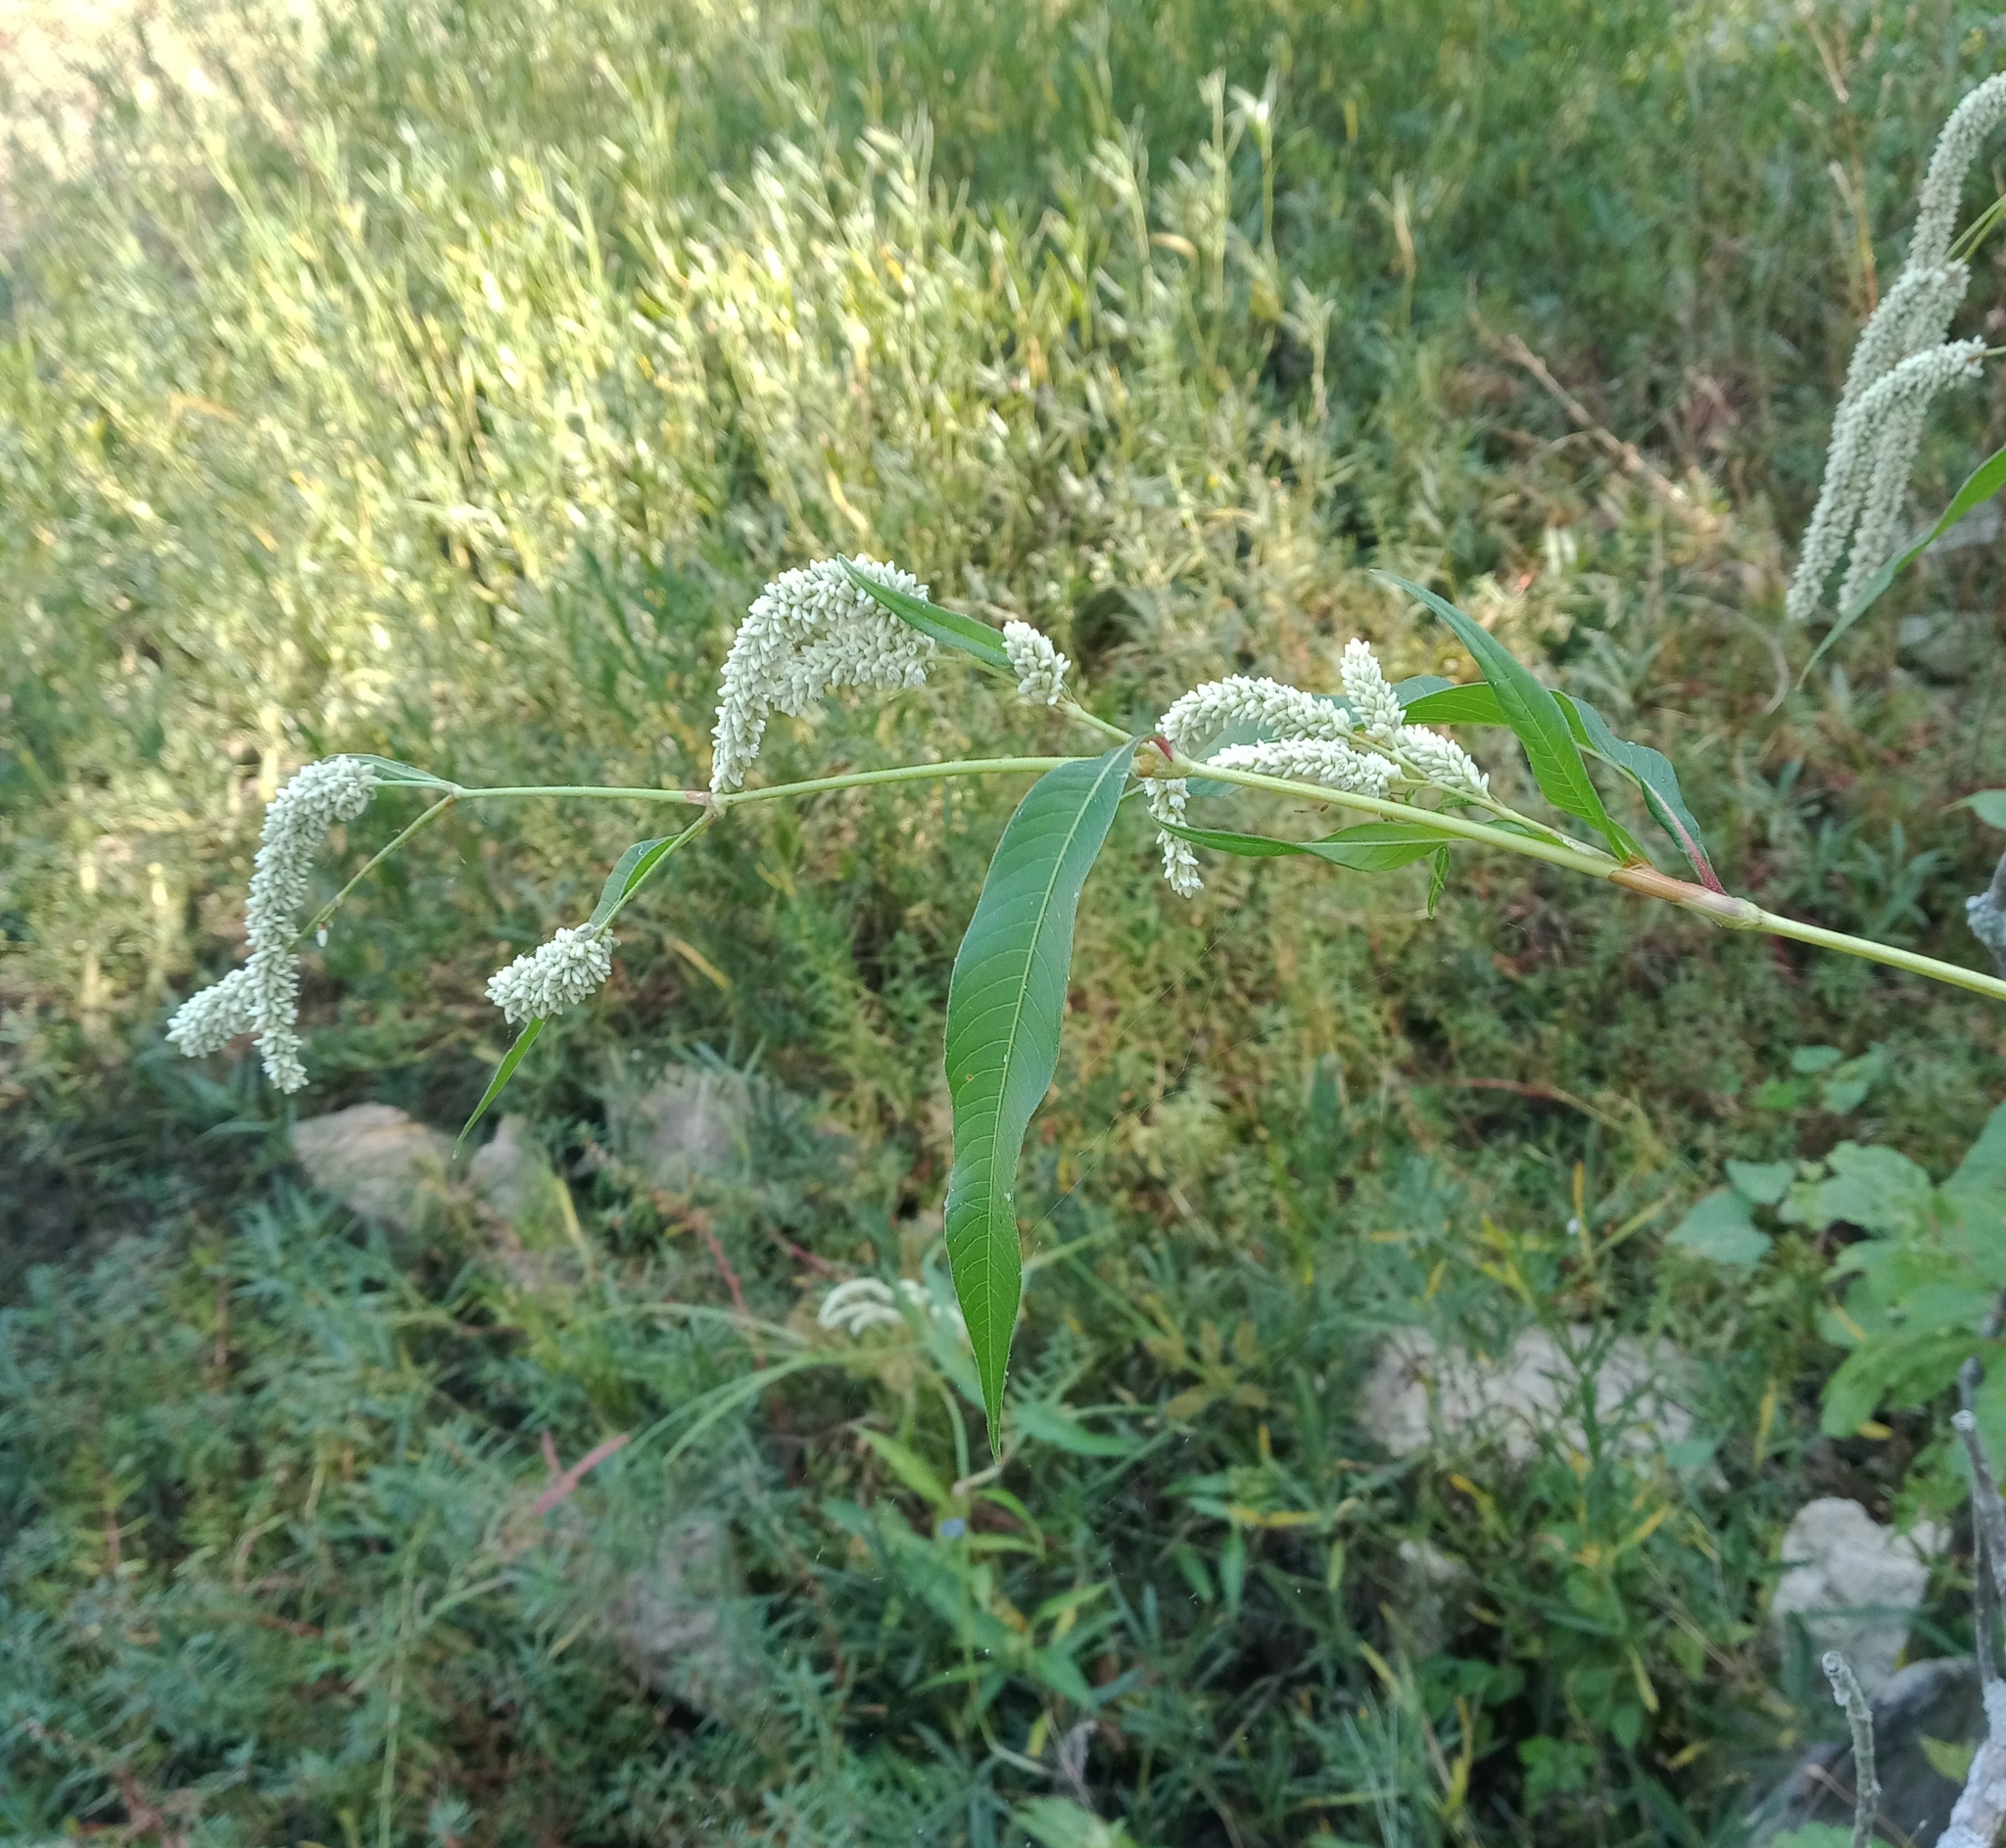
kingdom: Plantae
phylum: Tracheophyta
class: Magnoliopsida
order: Caryophyllales
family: Polygonaceae
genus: Persicaria
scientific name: Persicaria lapathifolia
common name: Curlytop knotweed
